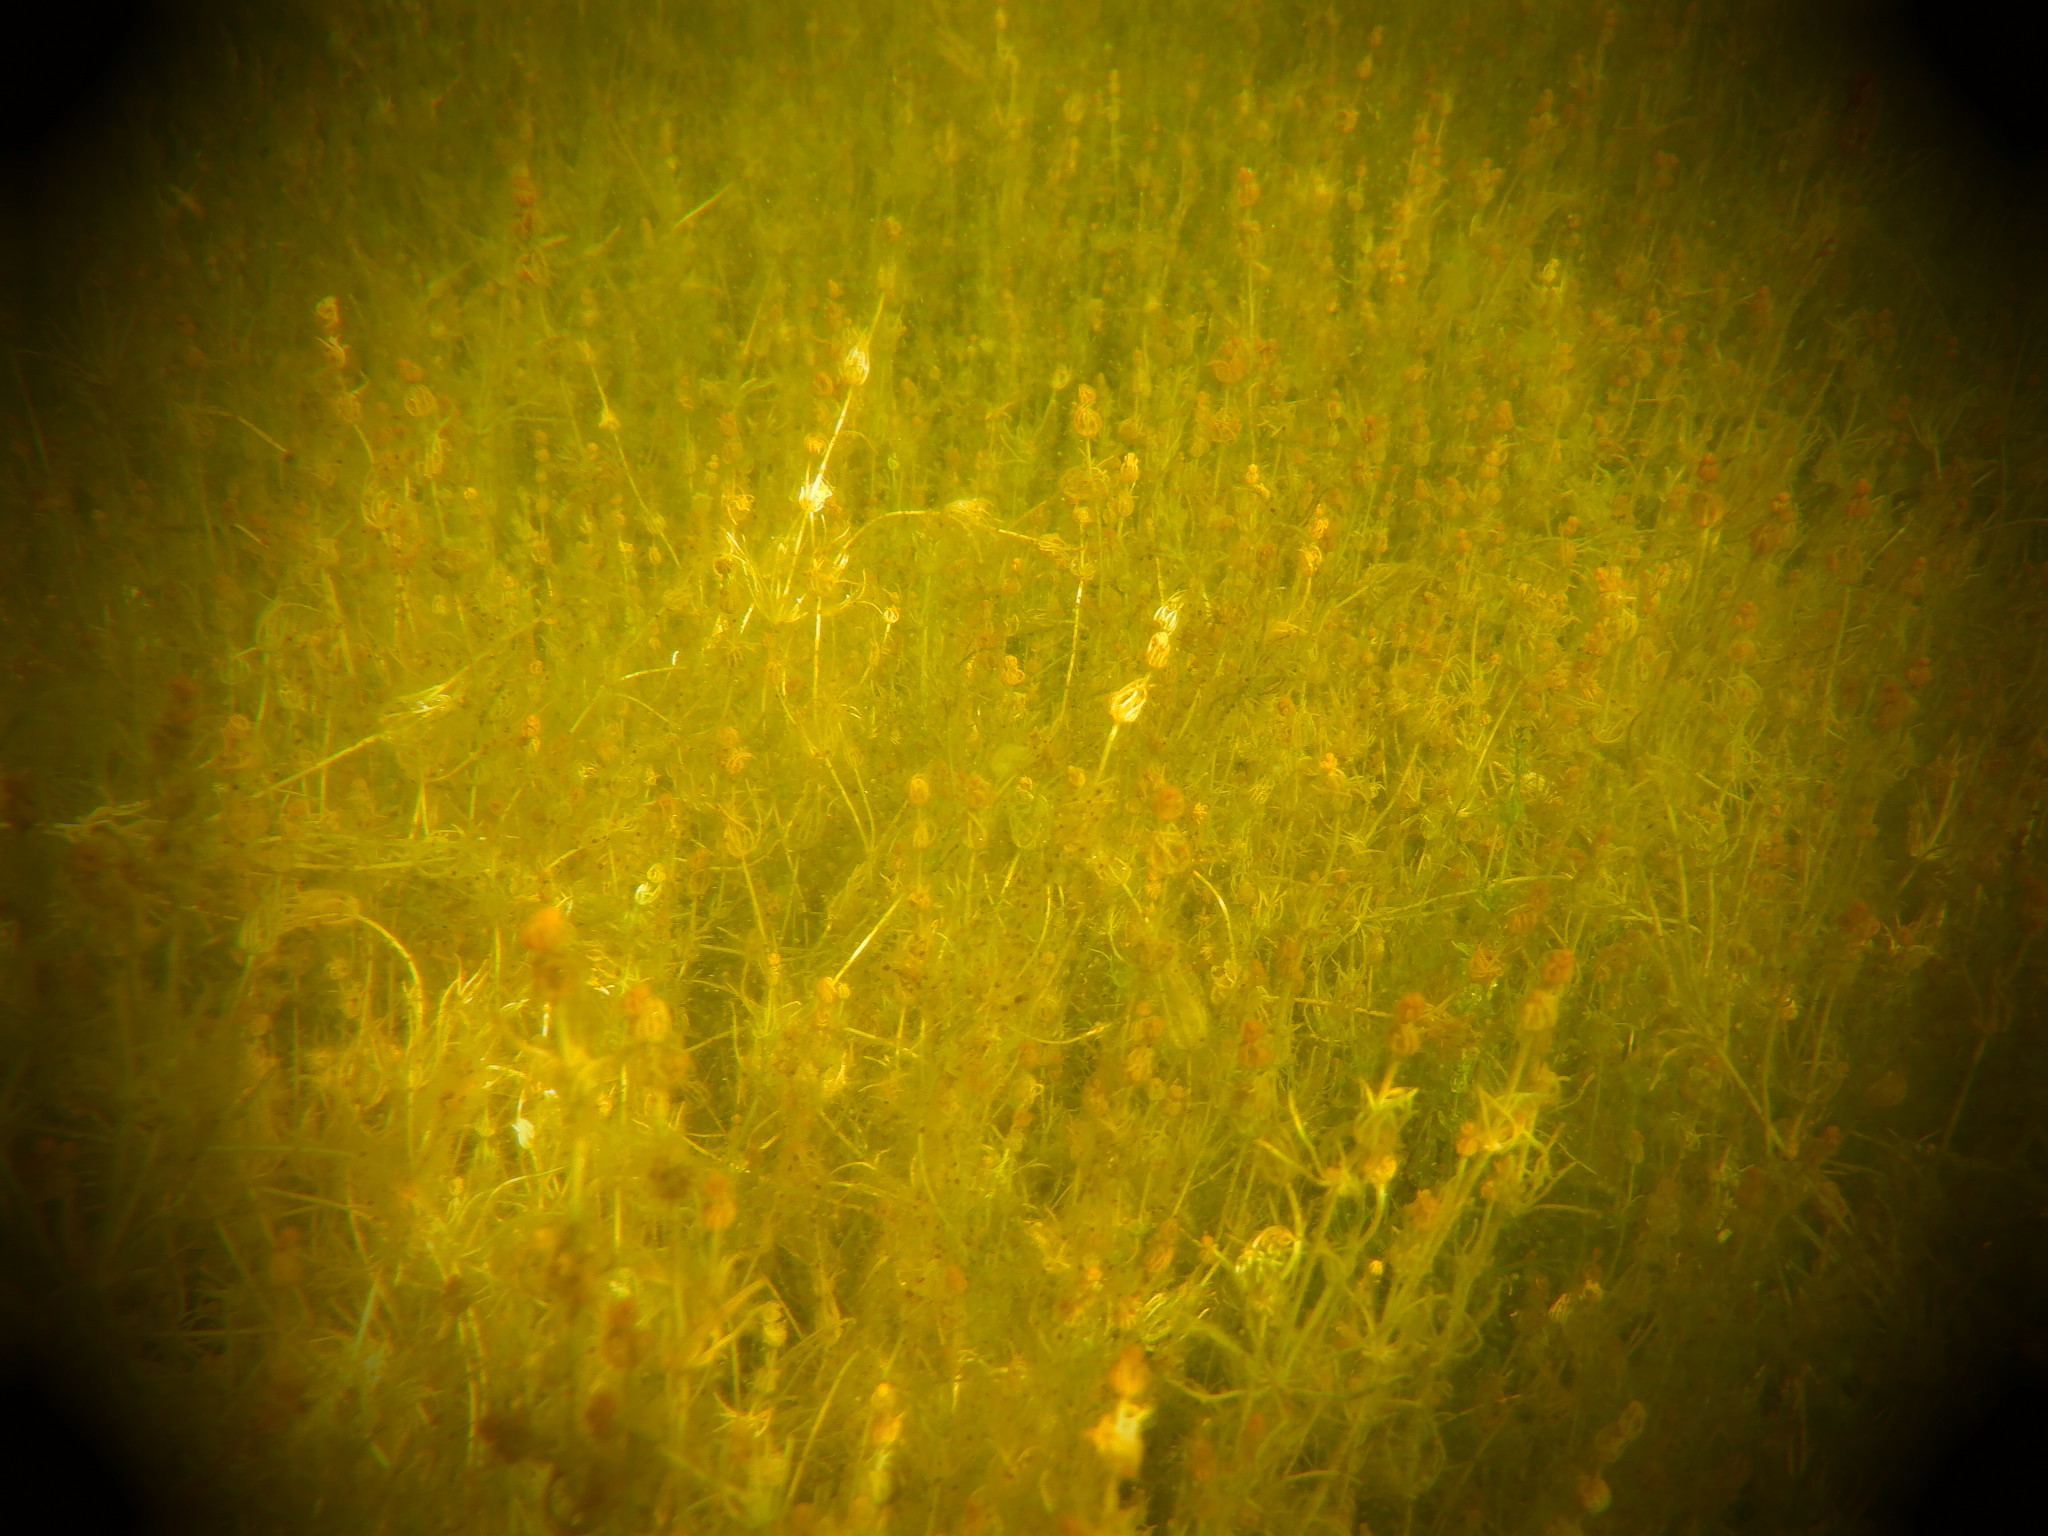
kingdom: Plantae
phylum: Charophyta
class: Charophyceae
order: Charales
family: Characeae
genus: Chara
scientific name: Chara
